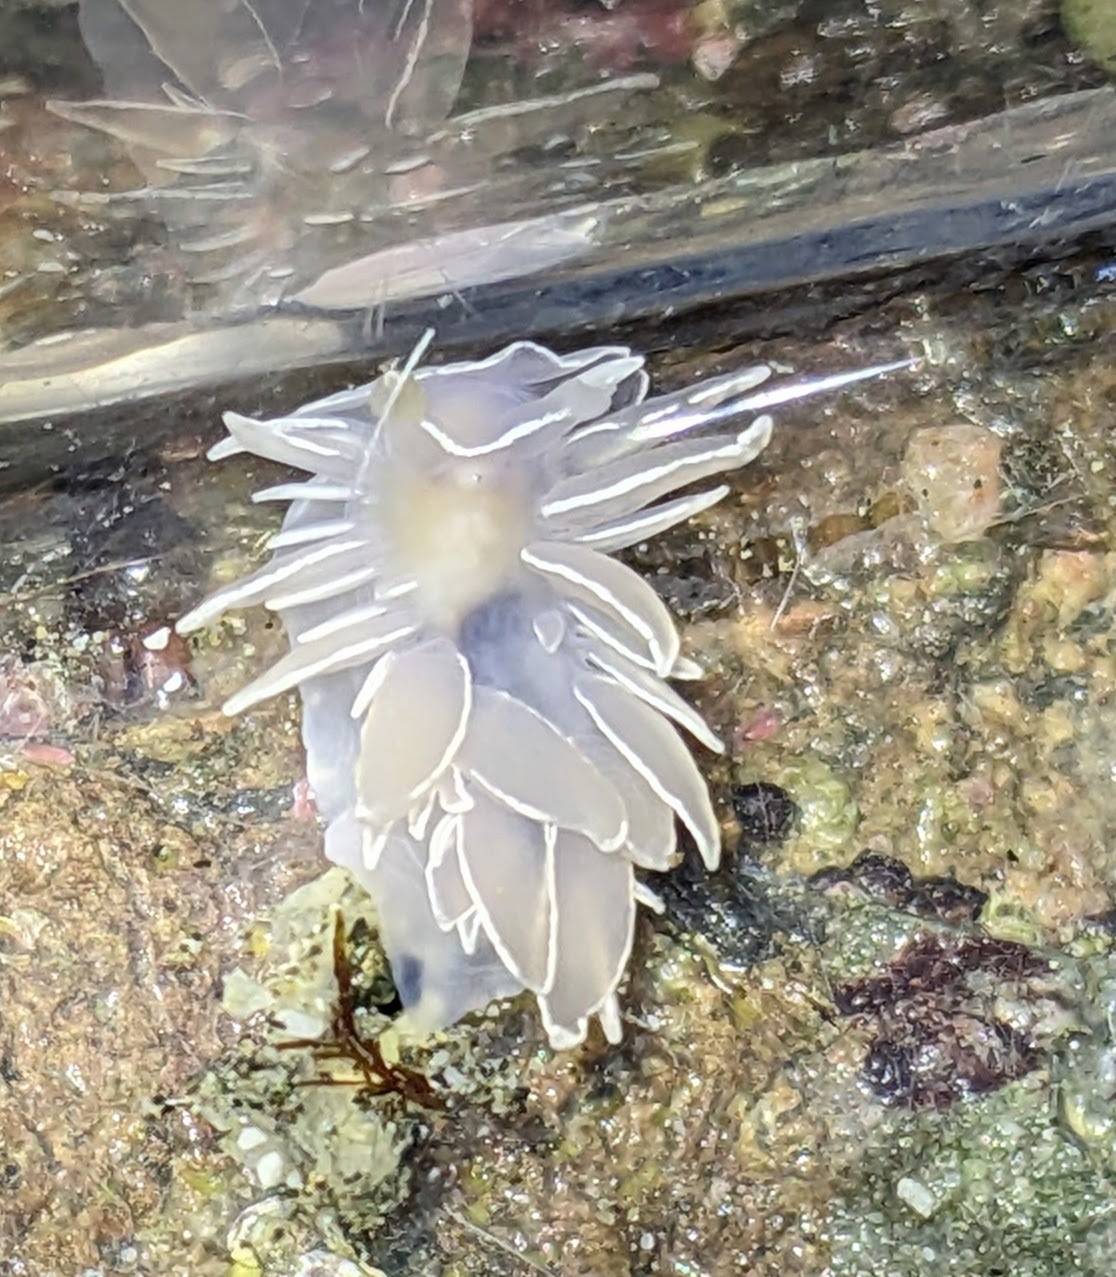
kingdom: Animalia
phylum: Mollusca
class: Gastropoda
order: Nudibranchia
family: Dironidae
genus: Dirona
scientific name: Dirona albolineata
